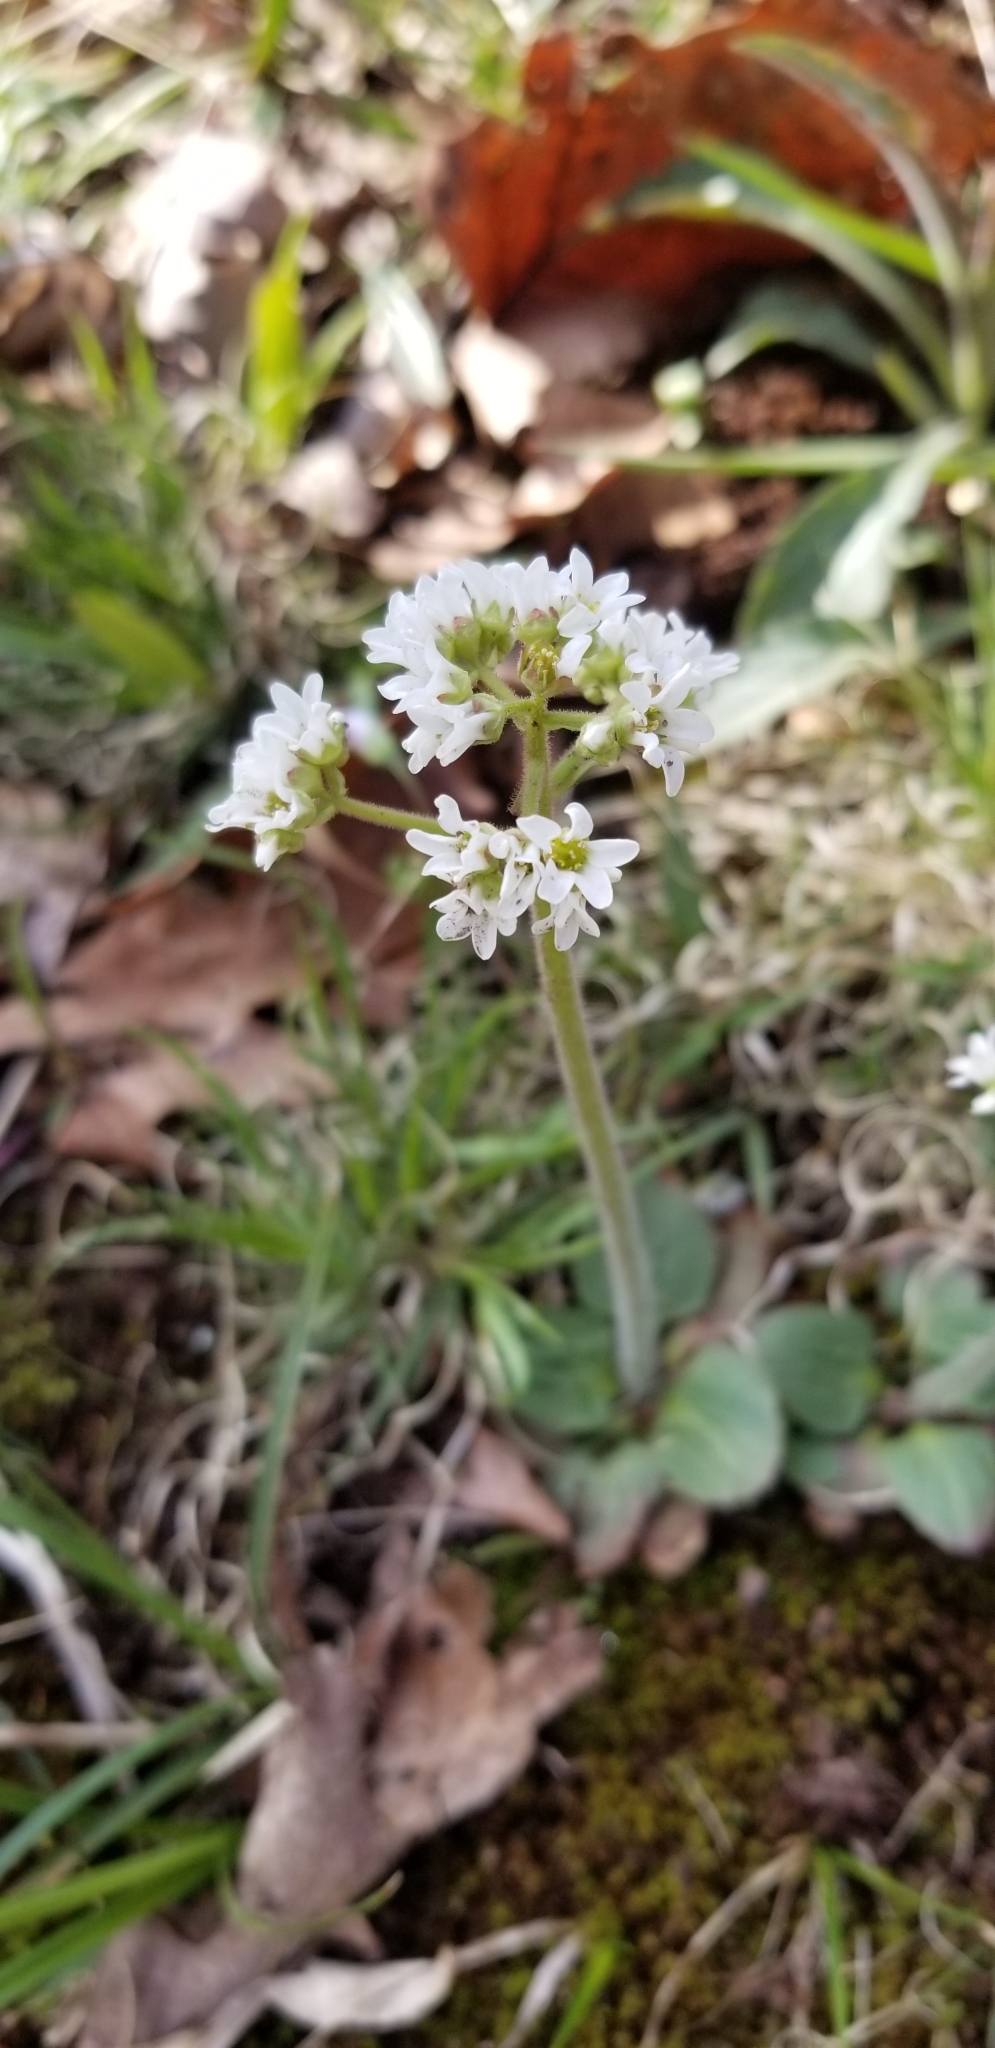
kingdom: Plantae
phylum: Tracheophyta
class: Magnoliopsida
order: Saxifragales
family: Saxifragaceae
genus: Micranthes
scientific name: Micranthes virginiensis
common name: Early saxifrage
